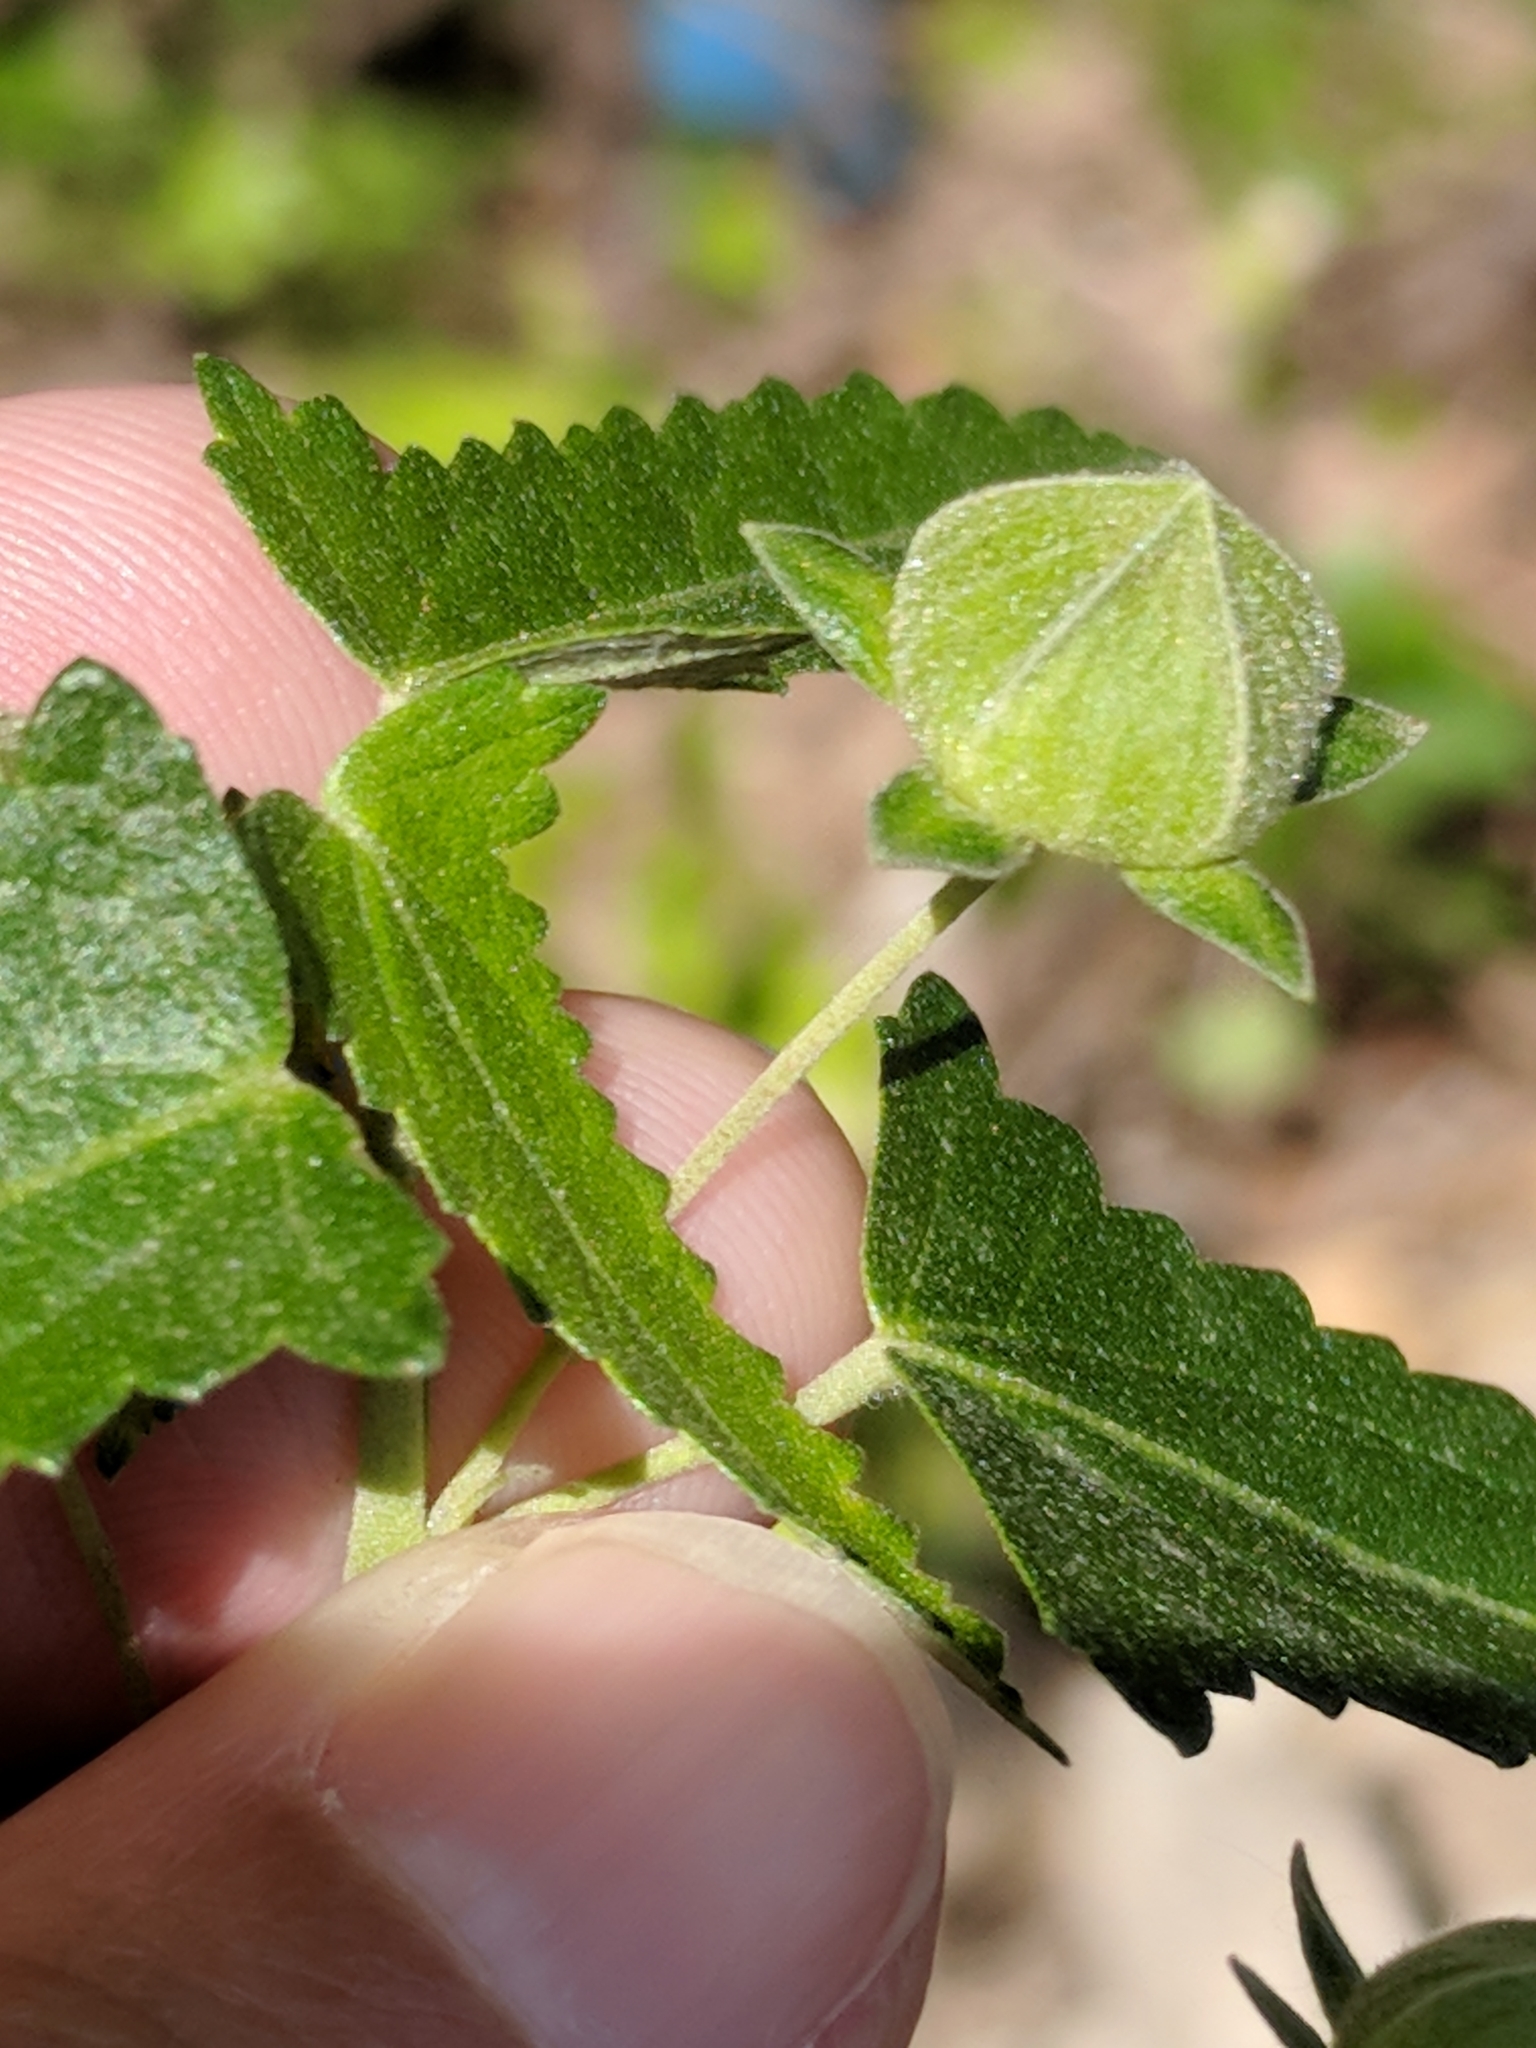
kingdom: Plantae
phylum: Tracheophyta
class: Magnoliopsida
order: Malvales
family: Malvaceae
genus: Pavonia
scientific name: Pavonia hastata
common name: Spearleaf swampmallow
